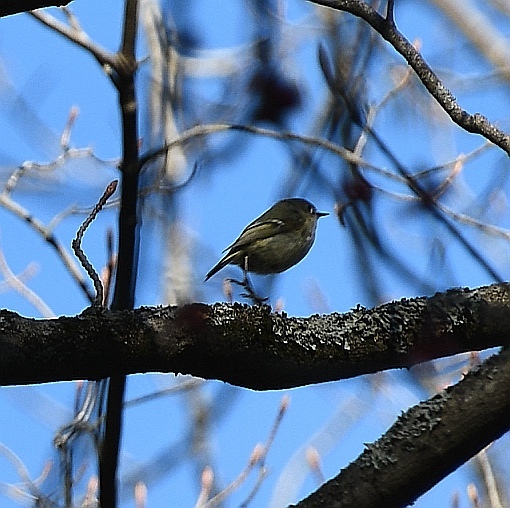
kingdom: Animalia
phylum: Chordata
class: Aves
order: Passeriformes
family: Regulidae
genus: Regulus
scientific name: Regulus calendula
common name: Ruby-crowned kinglet
